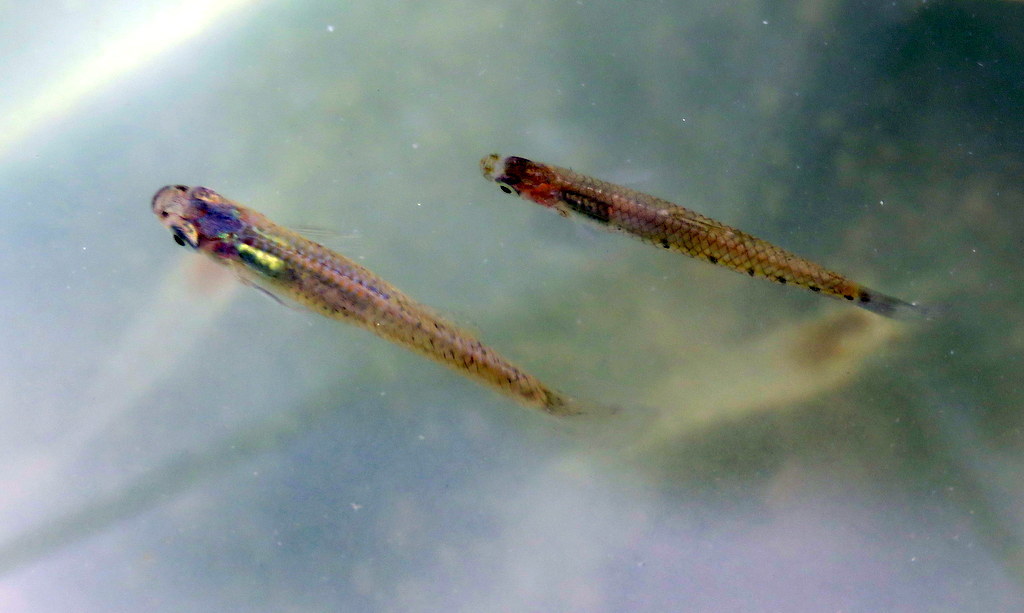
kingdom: Animalia
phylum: Chordata
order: Cyprinodontiformes
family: Poeciliidae
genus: Cnesterodon
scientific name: Cnesterodon decemmaculatus
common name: Ten spotted live-bearer
